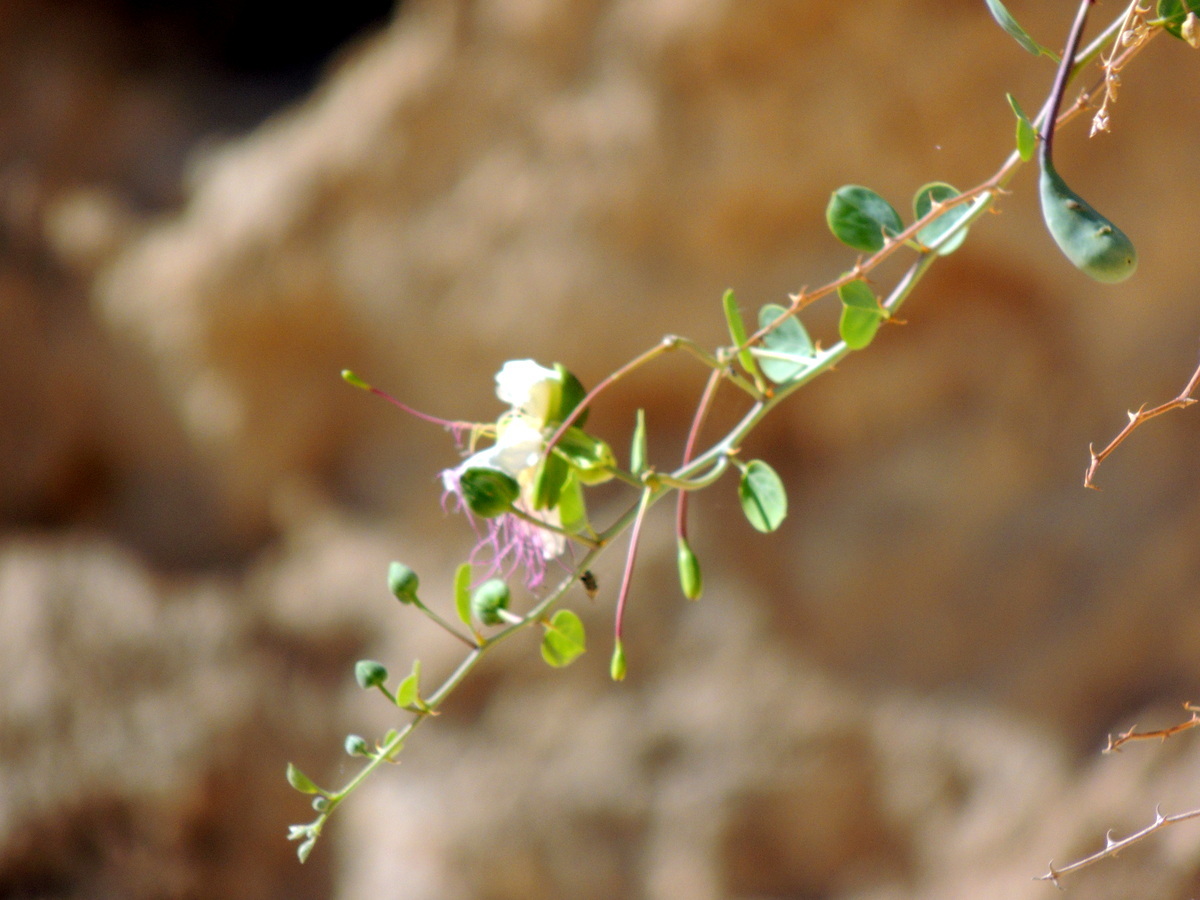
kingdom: Plantae
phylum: Tracheophyta
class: Magnoliopsida
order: Brassicales
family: Capparaceae
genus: Capparis
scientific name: Capparis spinosa
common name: Caper
